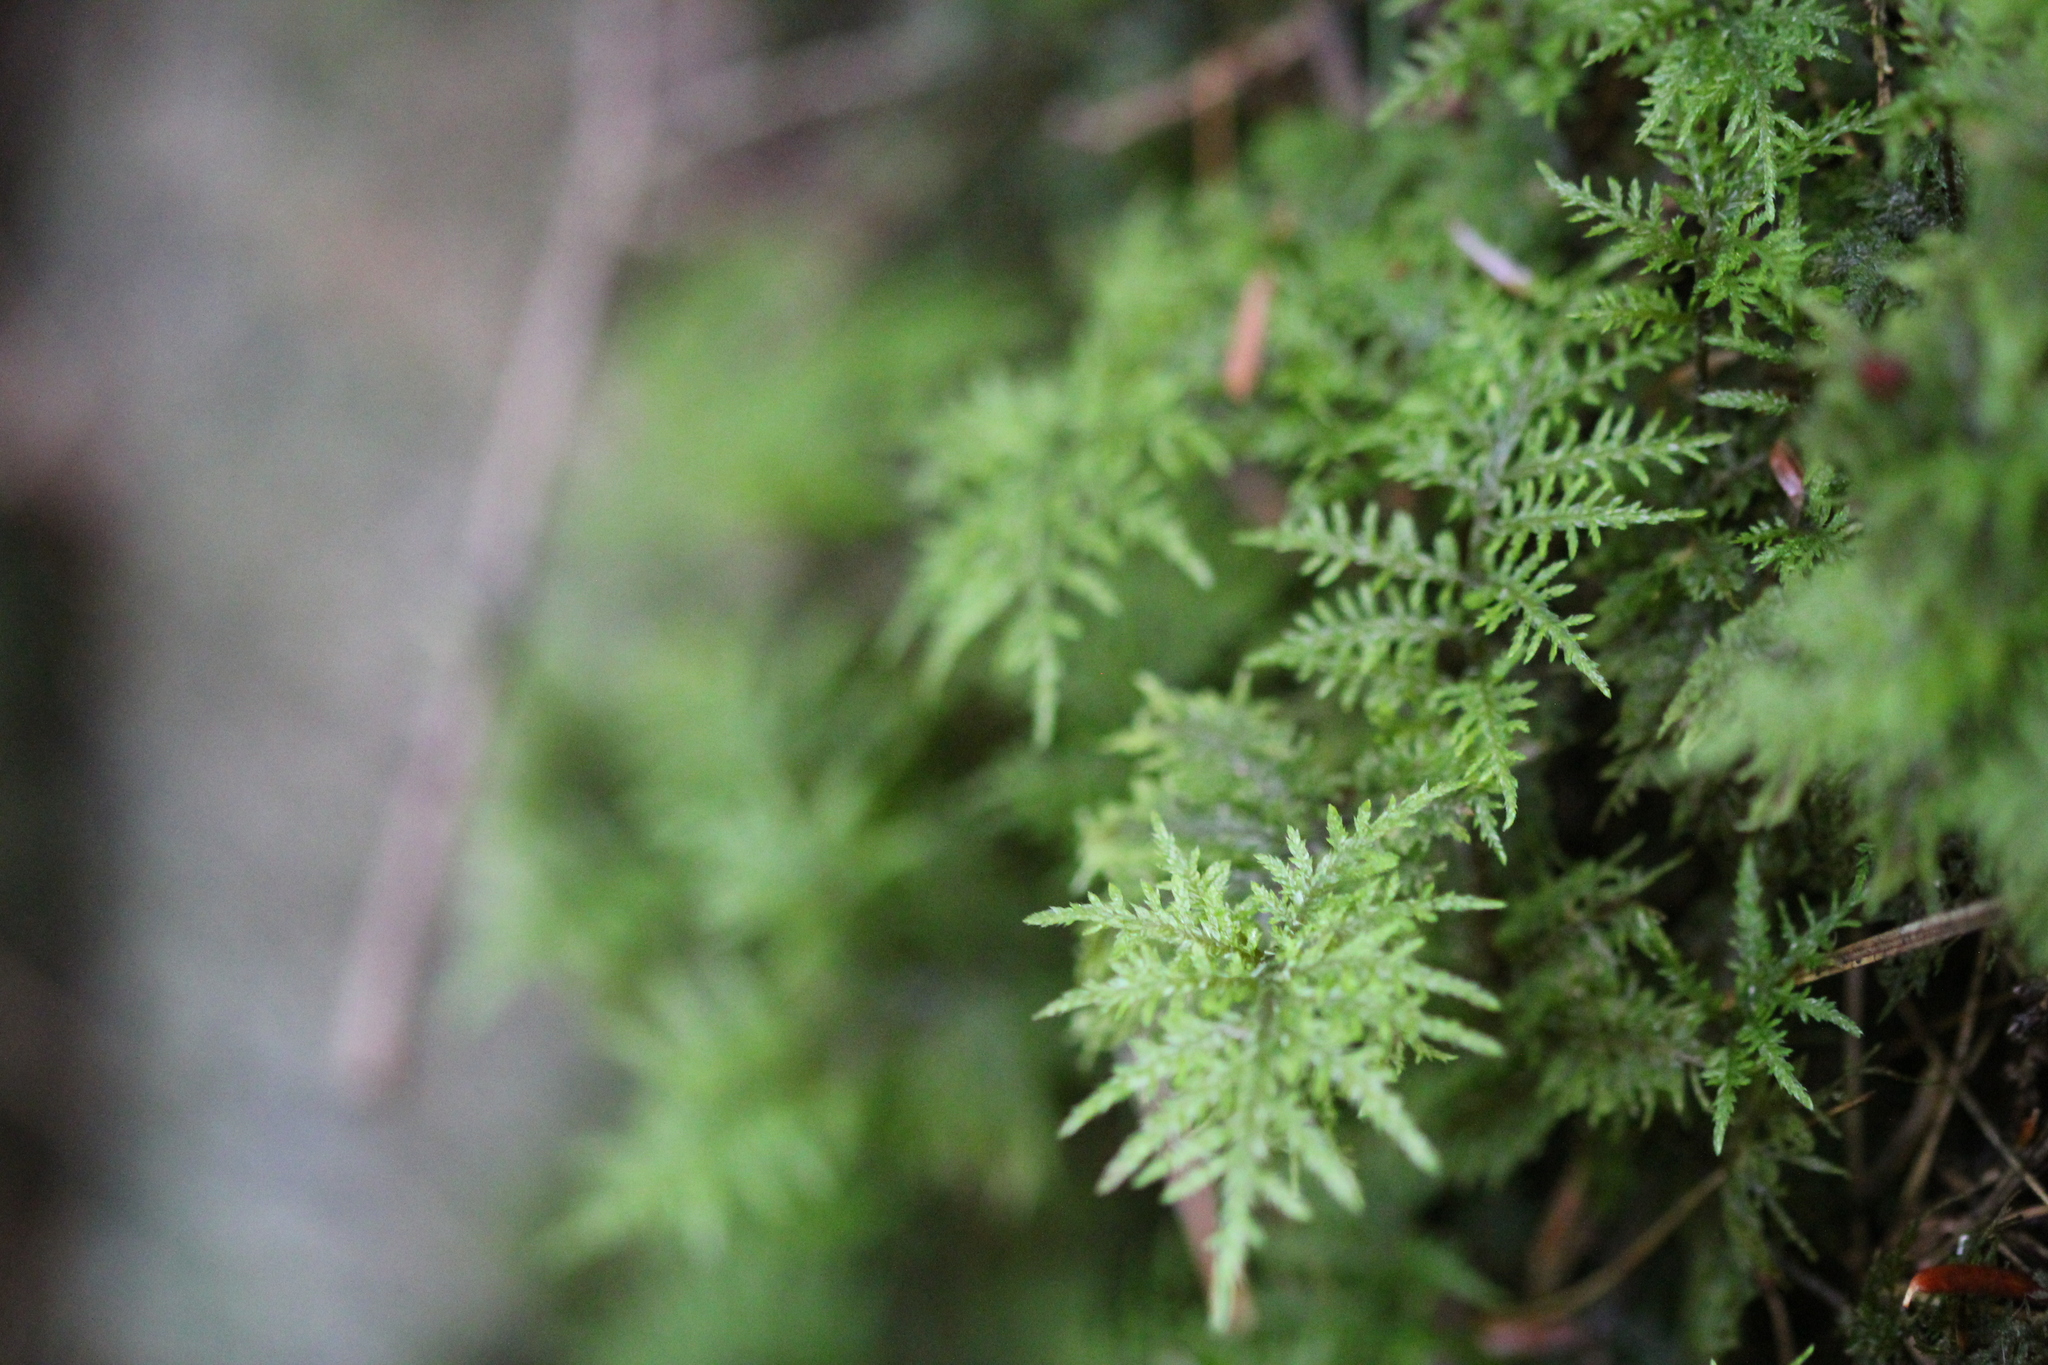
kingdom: Plantae
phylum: Bryophyta
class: Bryopsida
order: Hypnales
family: Hylocomiaceae
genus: Hylocomium
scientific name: Hylocomium splendens
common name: Stairstep moss
